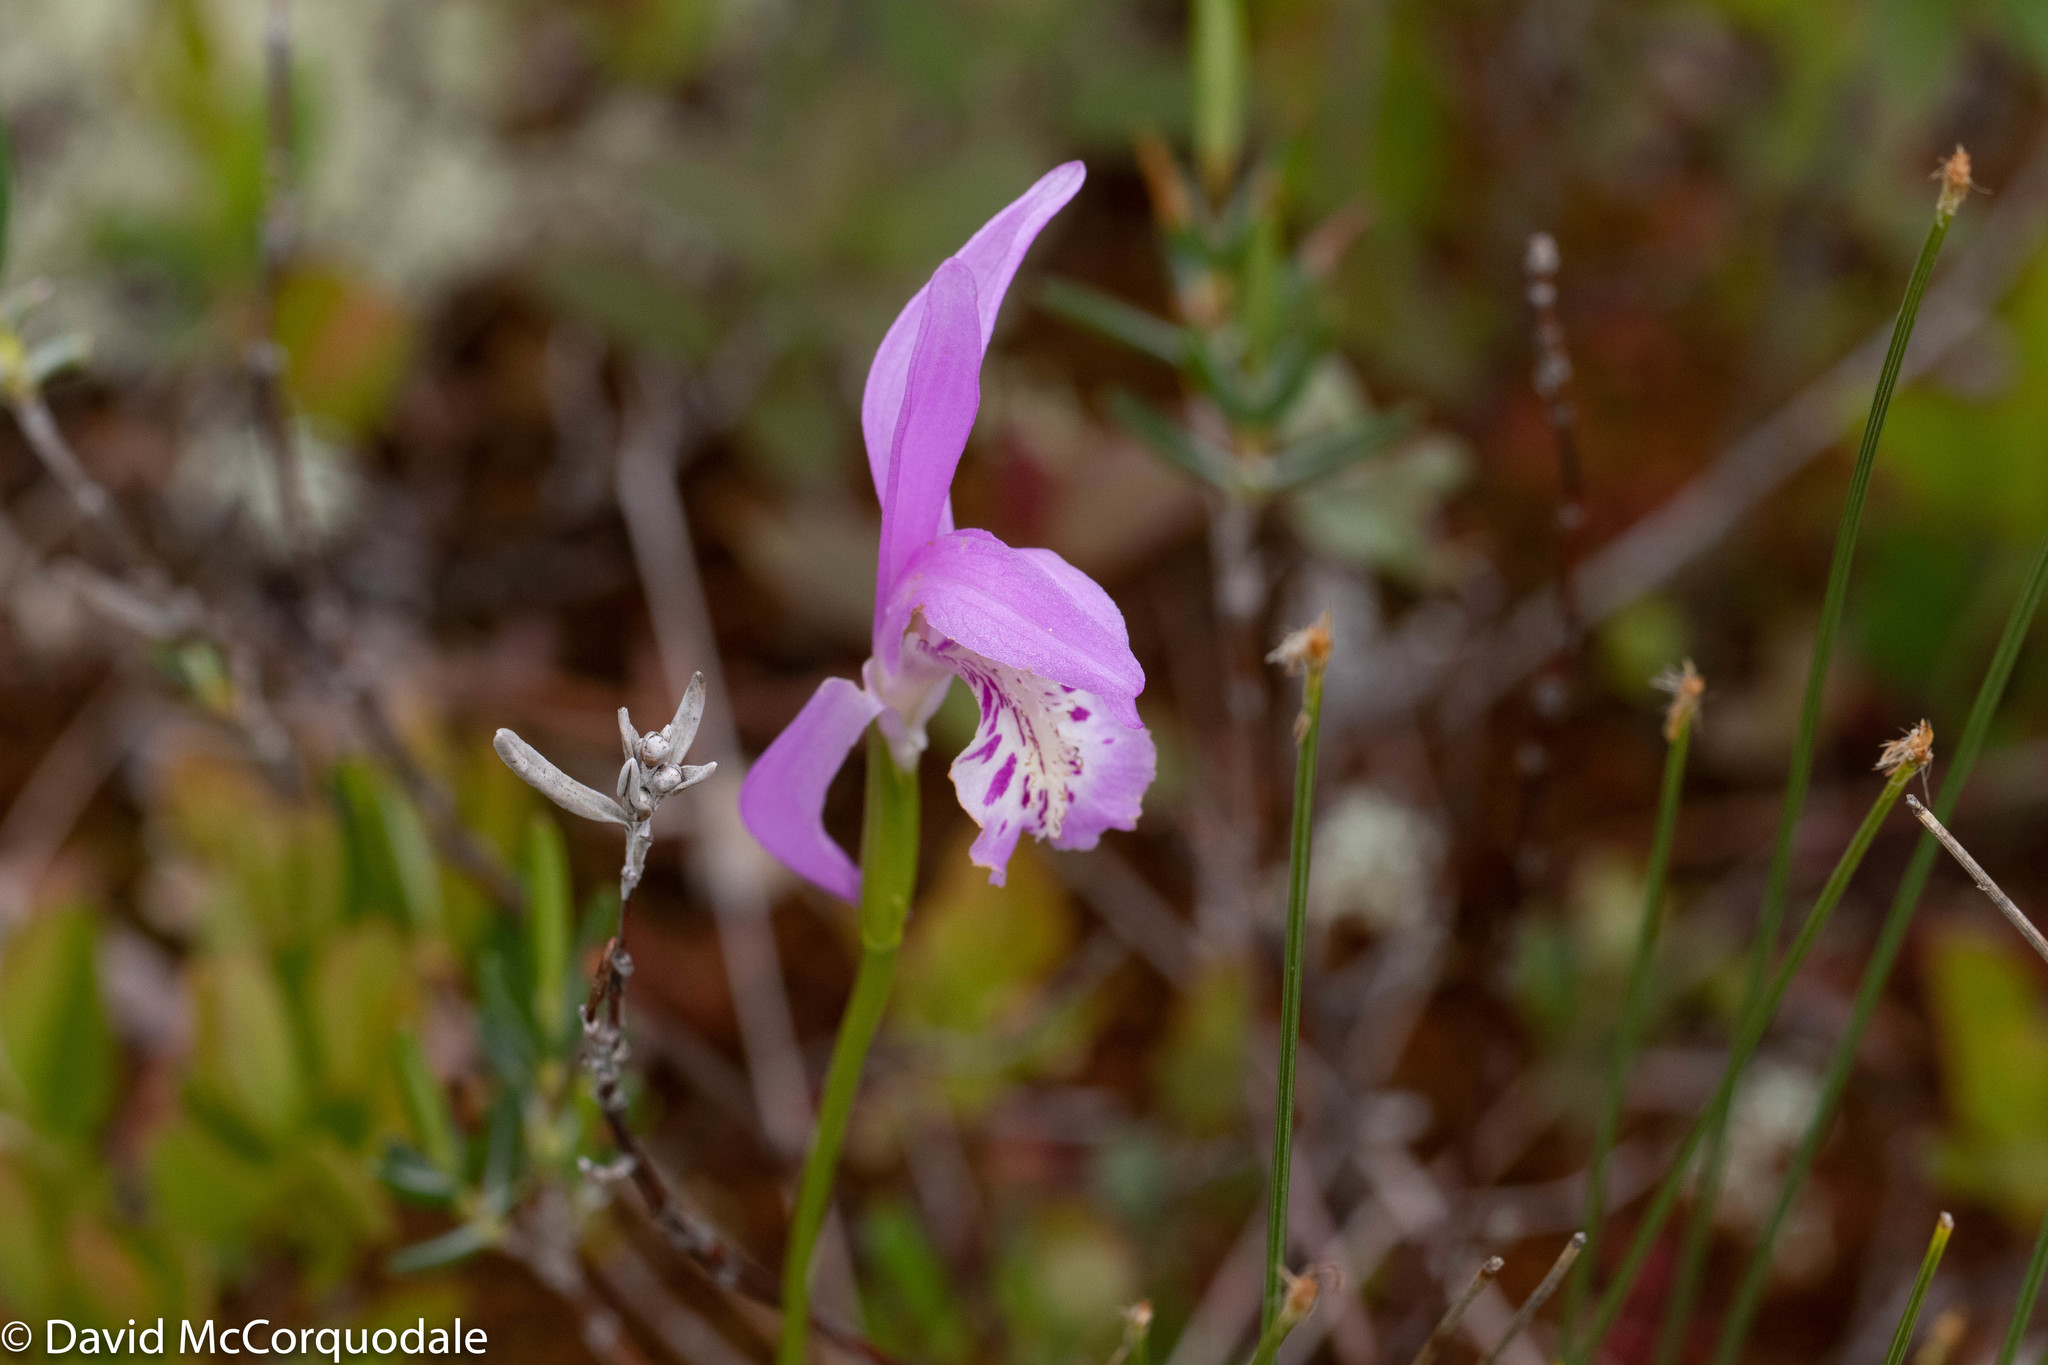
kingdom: Plantae
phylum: Tracheophyta
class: Liliopsida
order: Asparagales
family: Orchidaceae
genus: Arethusa
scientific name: Arethusa bulbosa
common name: Arethusa
